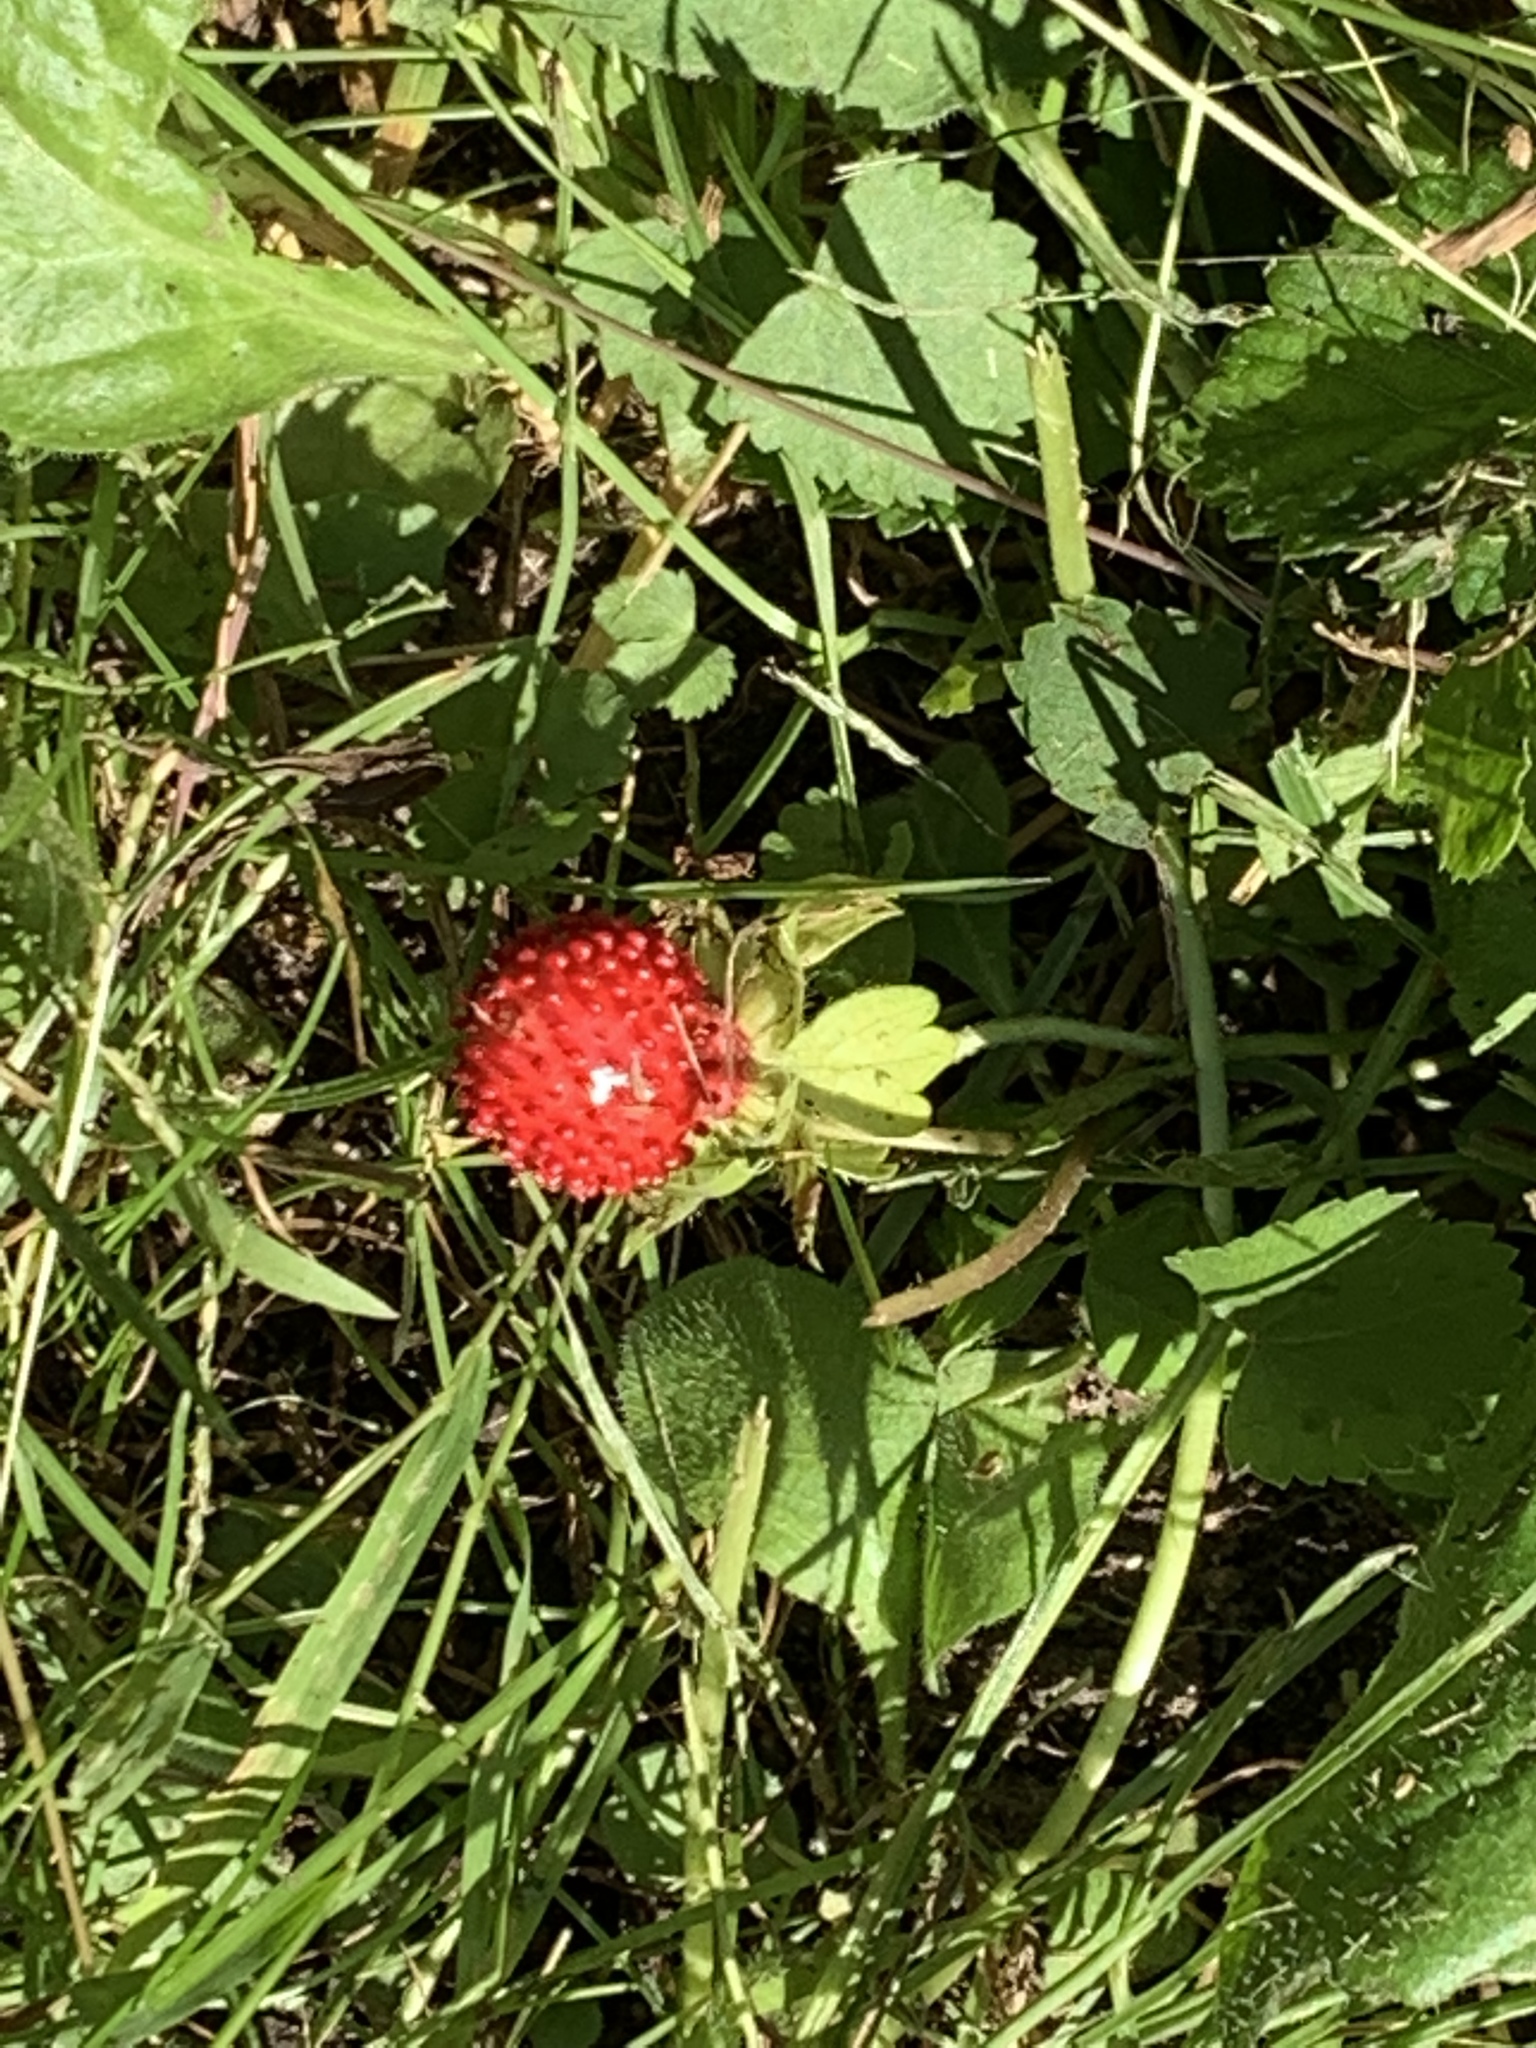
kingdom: Plantae
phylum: Tracheophyta
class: Magnoliopsida
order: Rosales
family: Rosaceae
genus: Potentilla
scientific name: Potentilla indica
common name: Yellow-flowered strawberry
